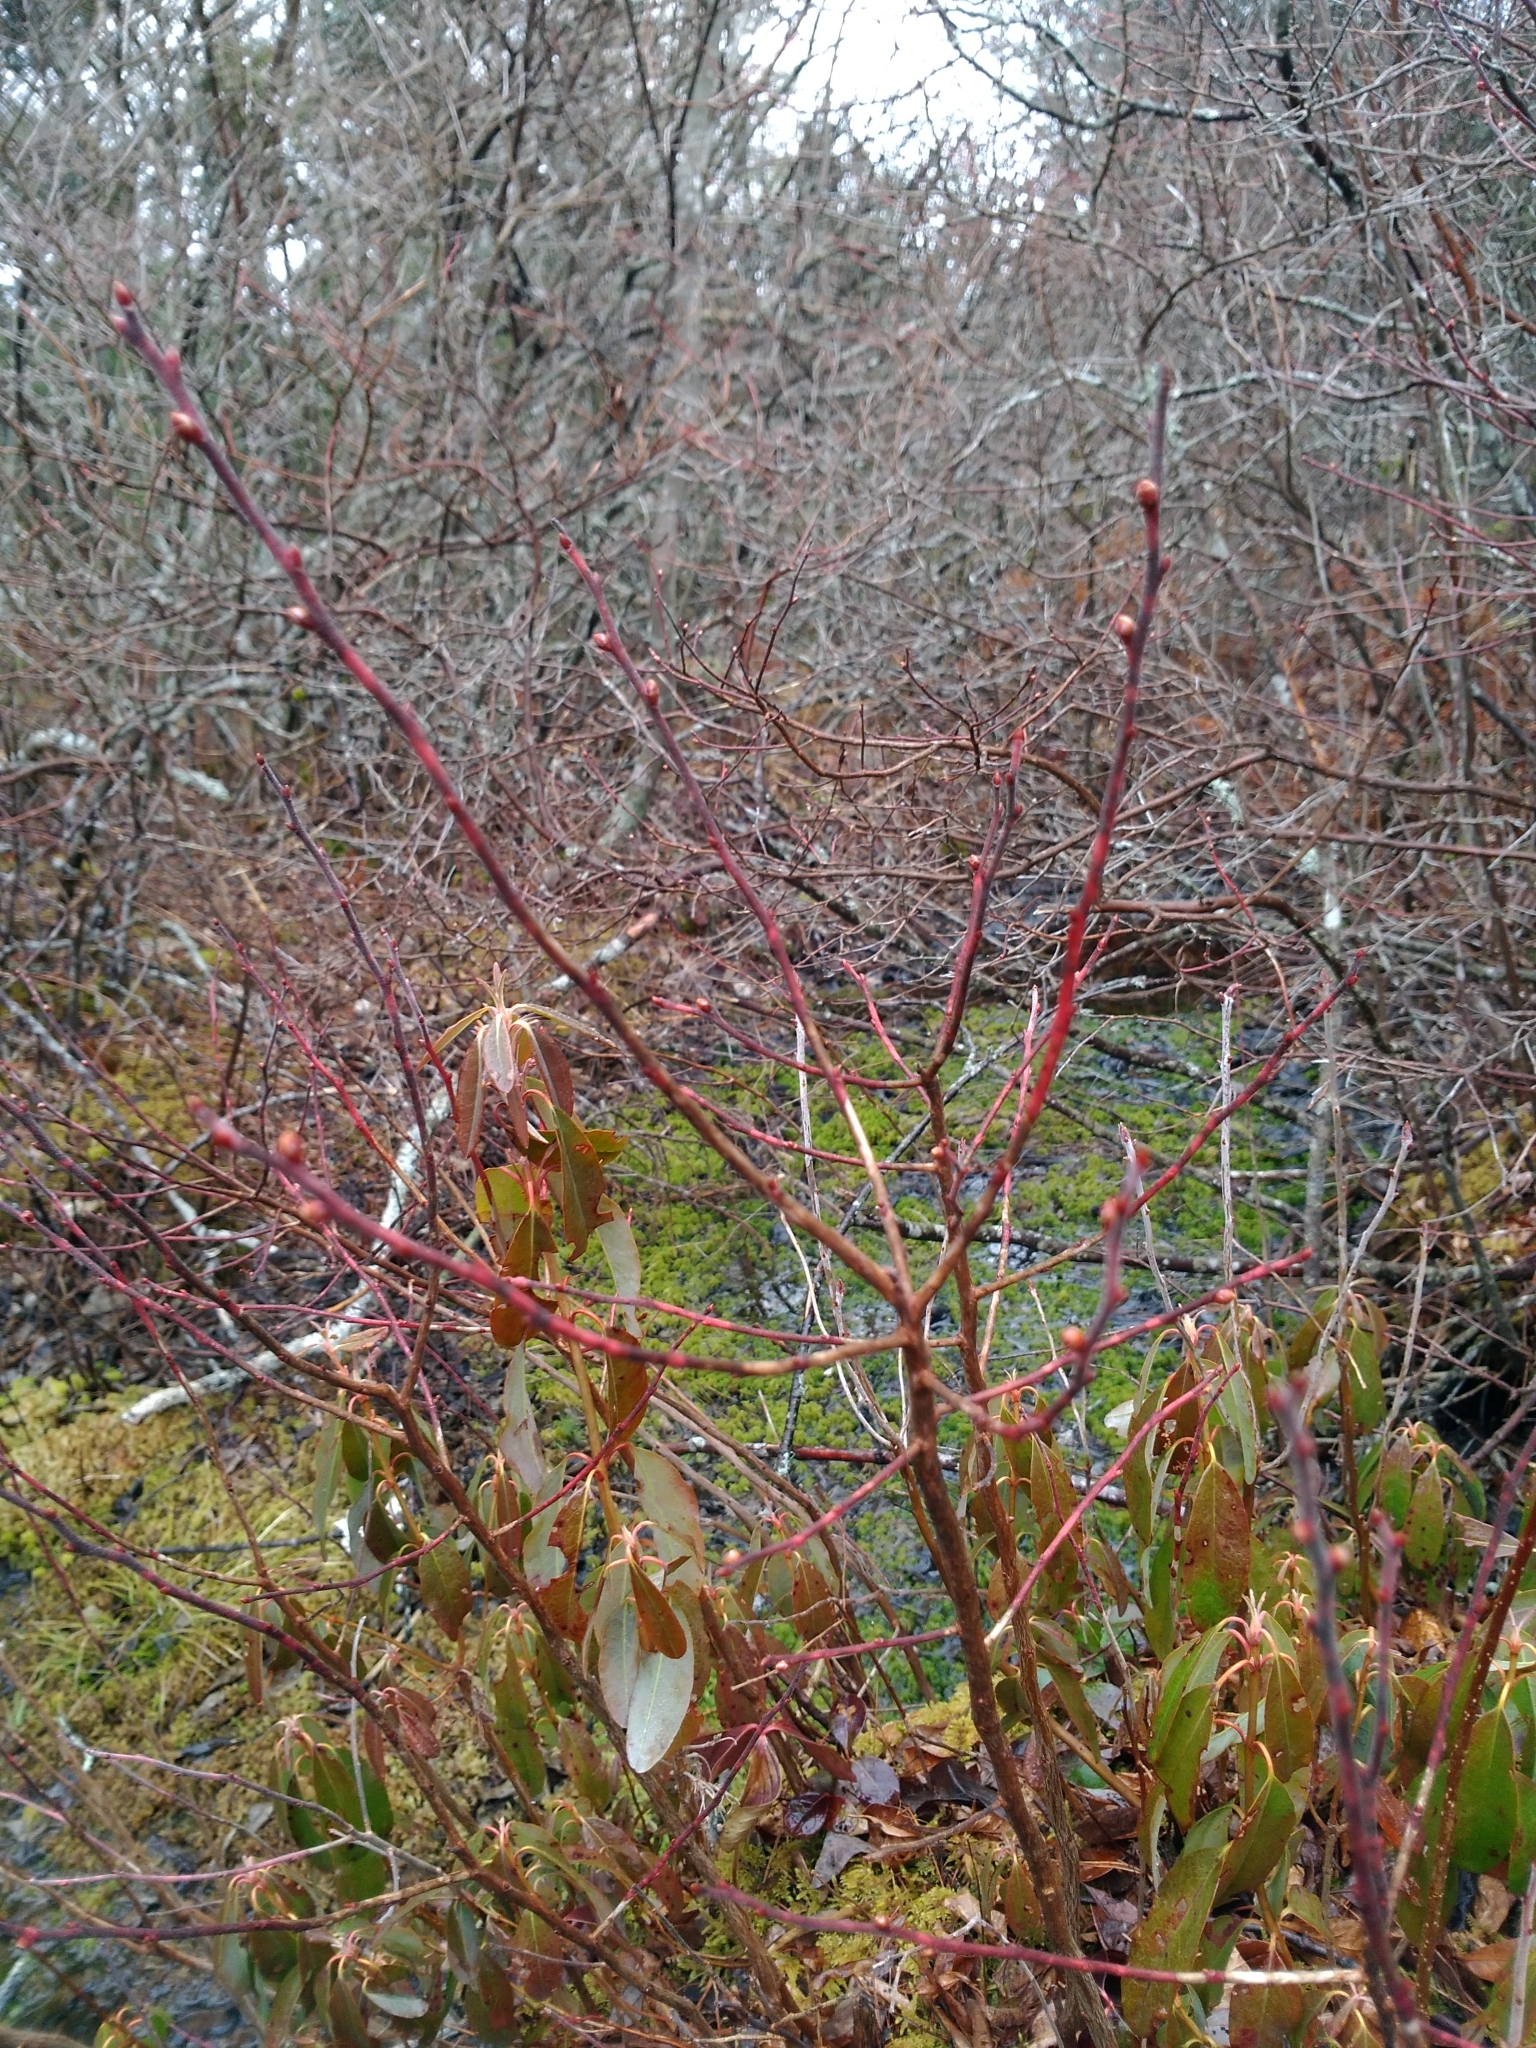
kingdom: Plantae
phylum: Tracheophyta
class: Magnoliopsida
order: Ericales
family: Ericaceae
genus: Gaylussacia
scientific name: Gaylussacia baccata
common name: Black huckleberry
